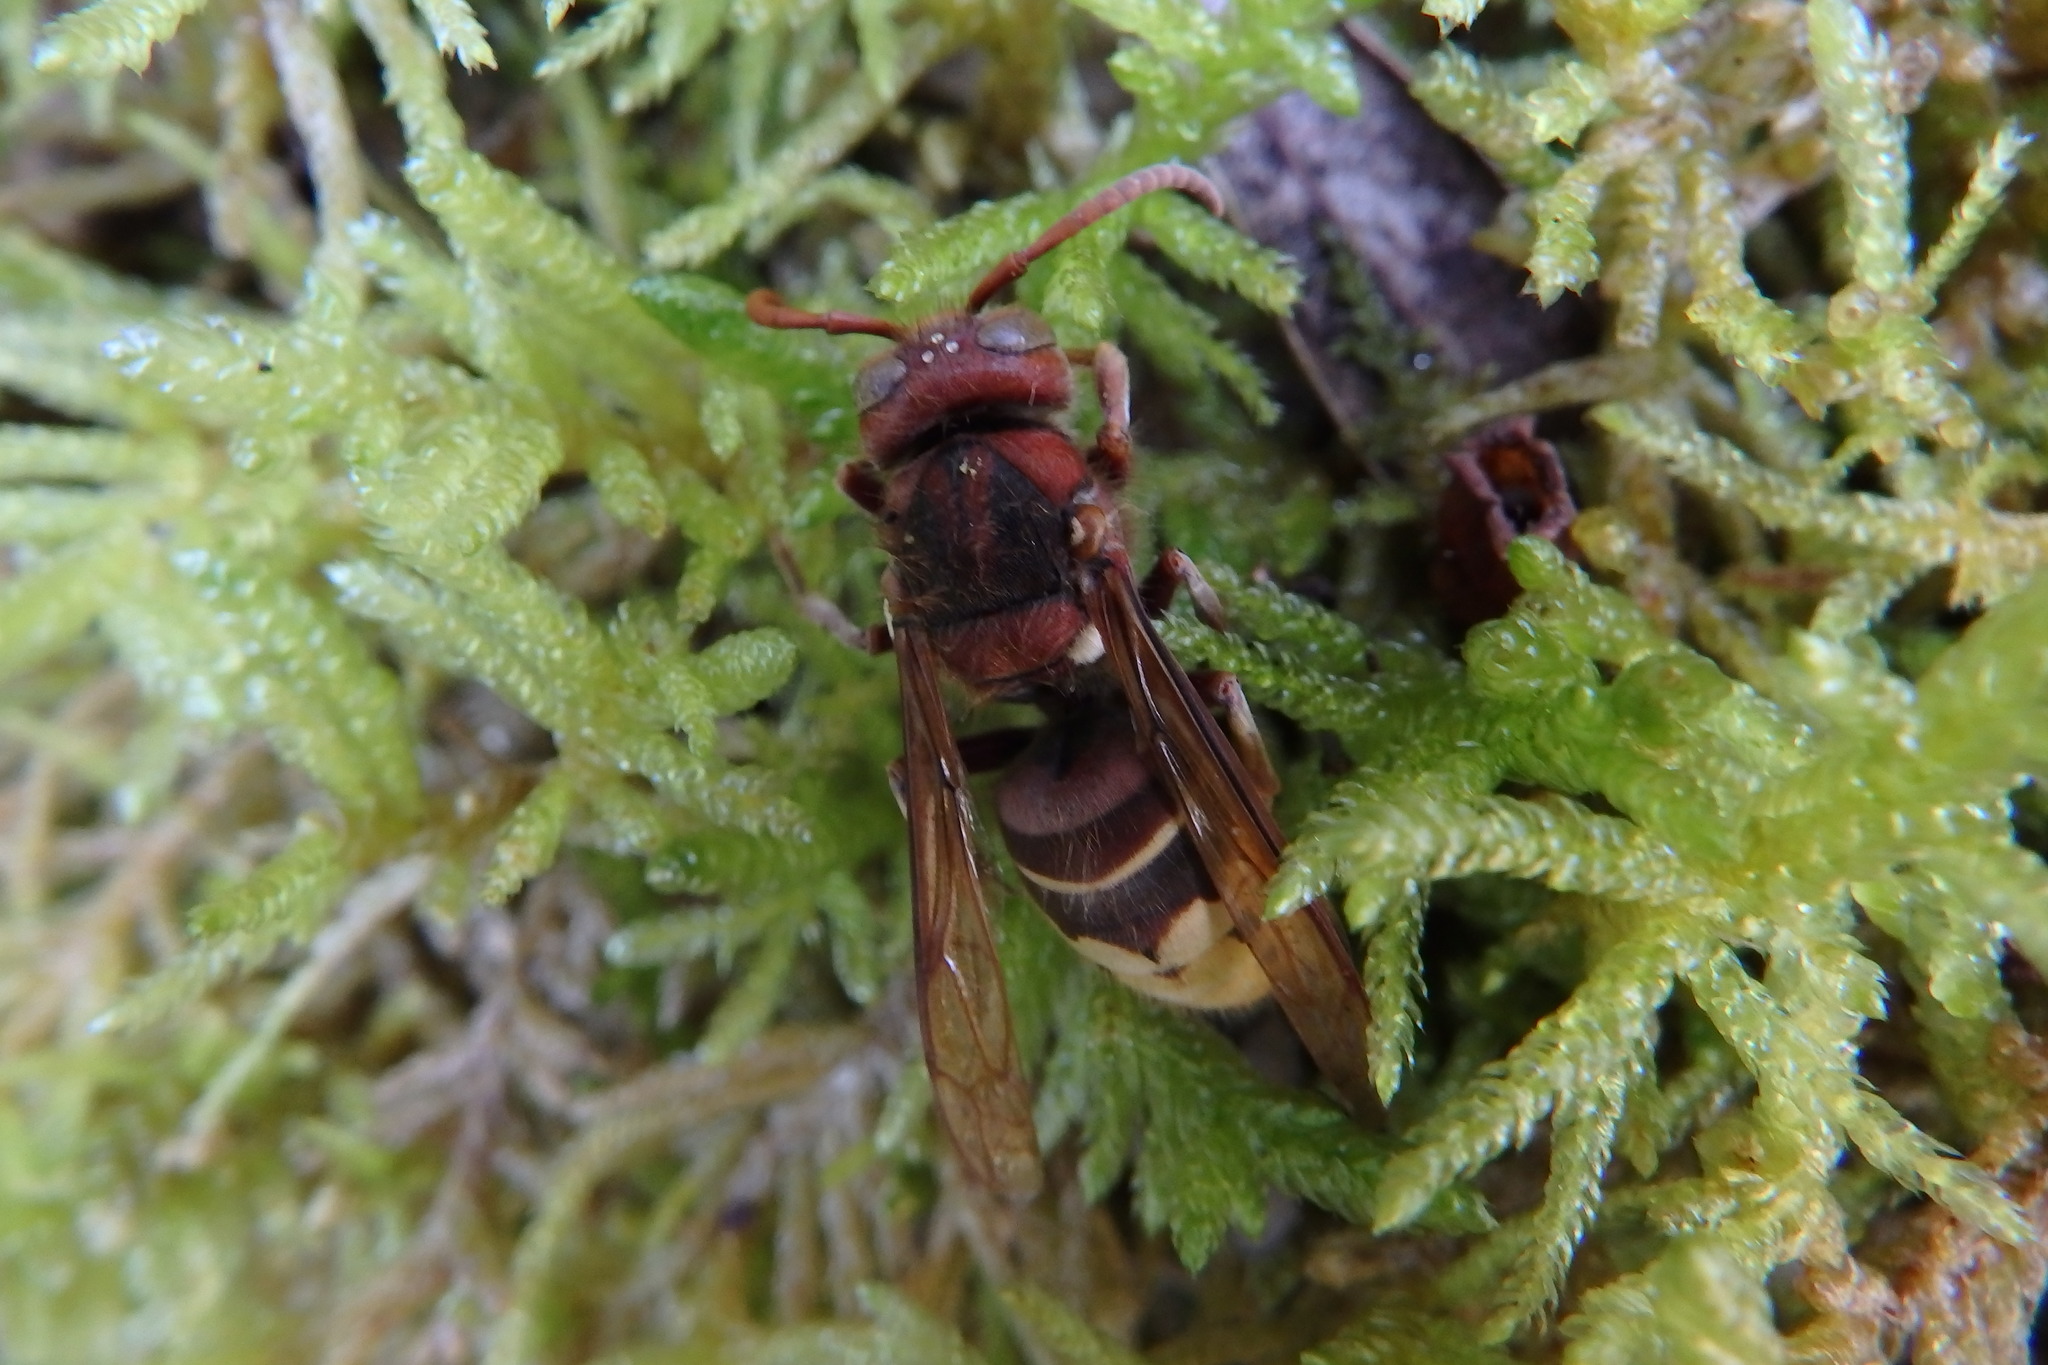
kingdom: Animalia
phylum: Arthropoda
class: Insecta
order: Hymenoptera
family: Vespidae
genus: Vespa
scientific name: Vespa crabro
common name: Hornet
